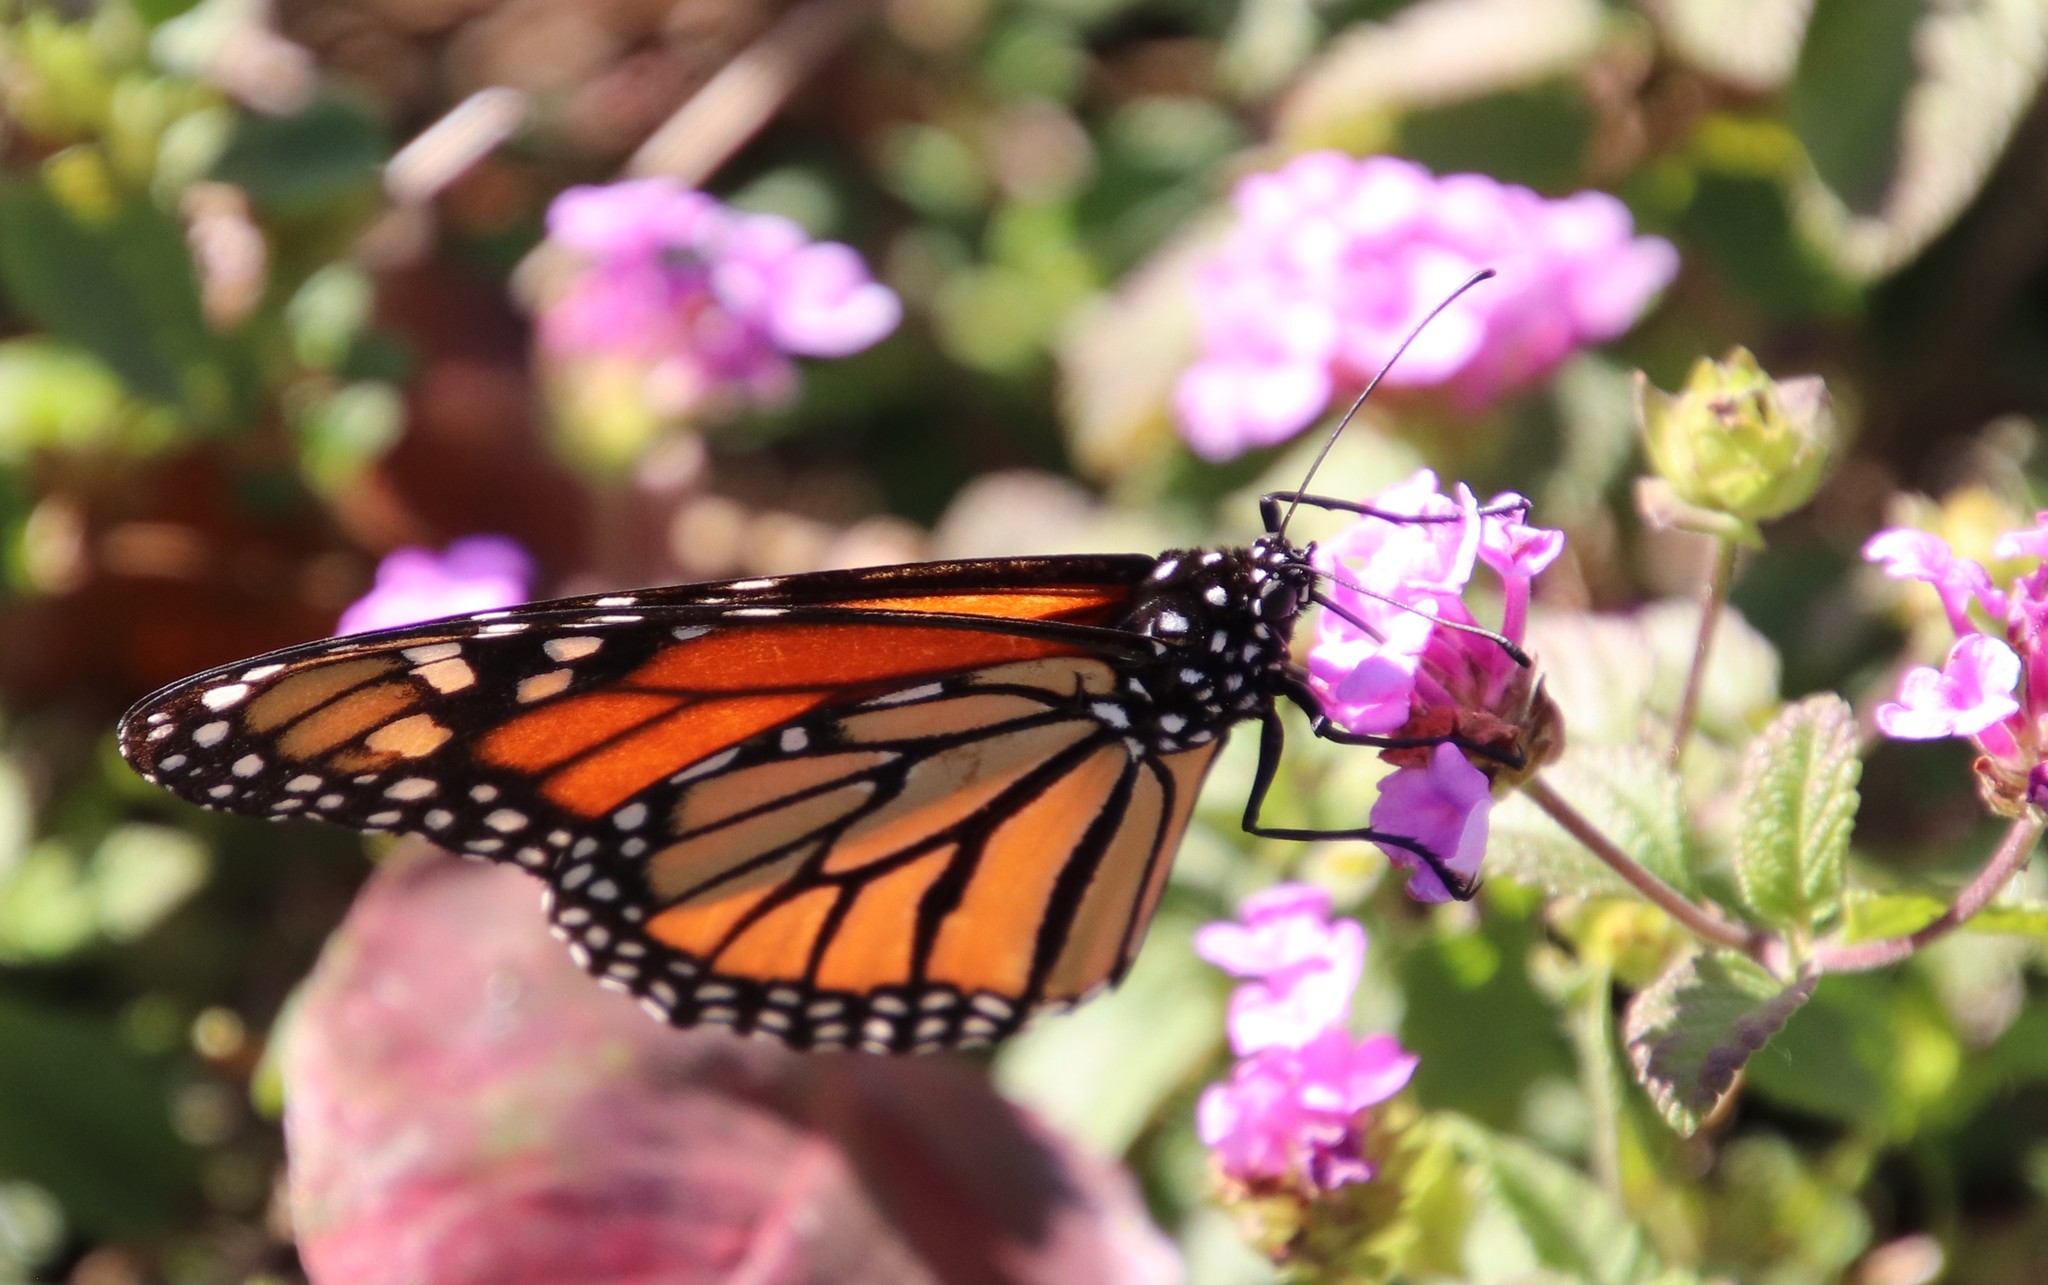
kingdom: Animalia
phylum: Arthropoda
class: Insecta
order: Lepidoptera
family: Nymphalidae
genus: Danaus
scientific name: Danaus plexippus
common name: Monarch
